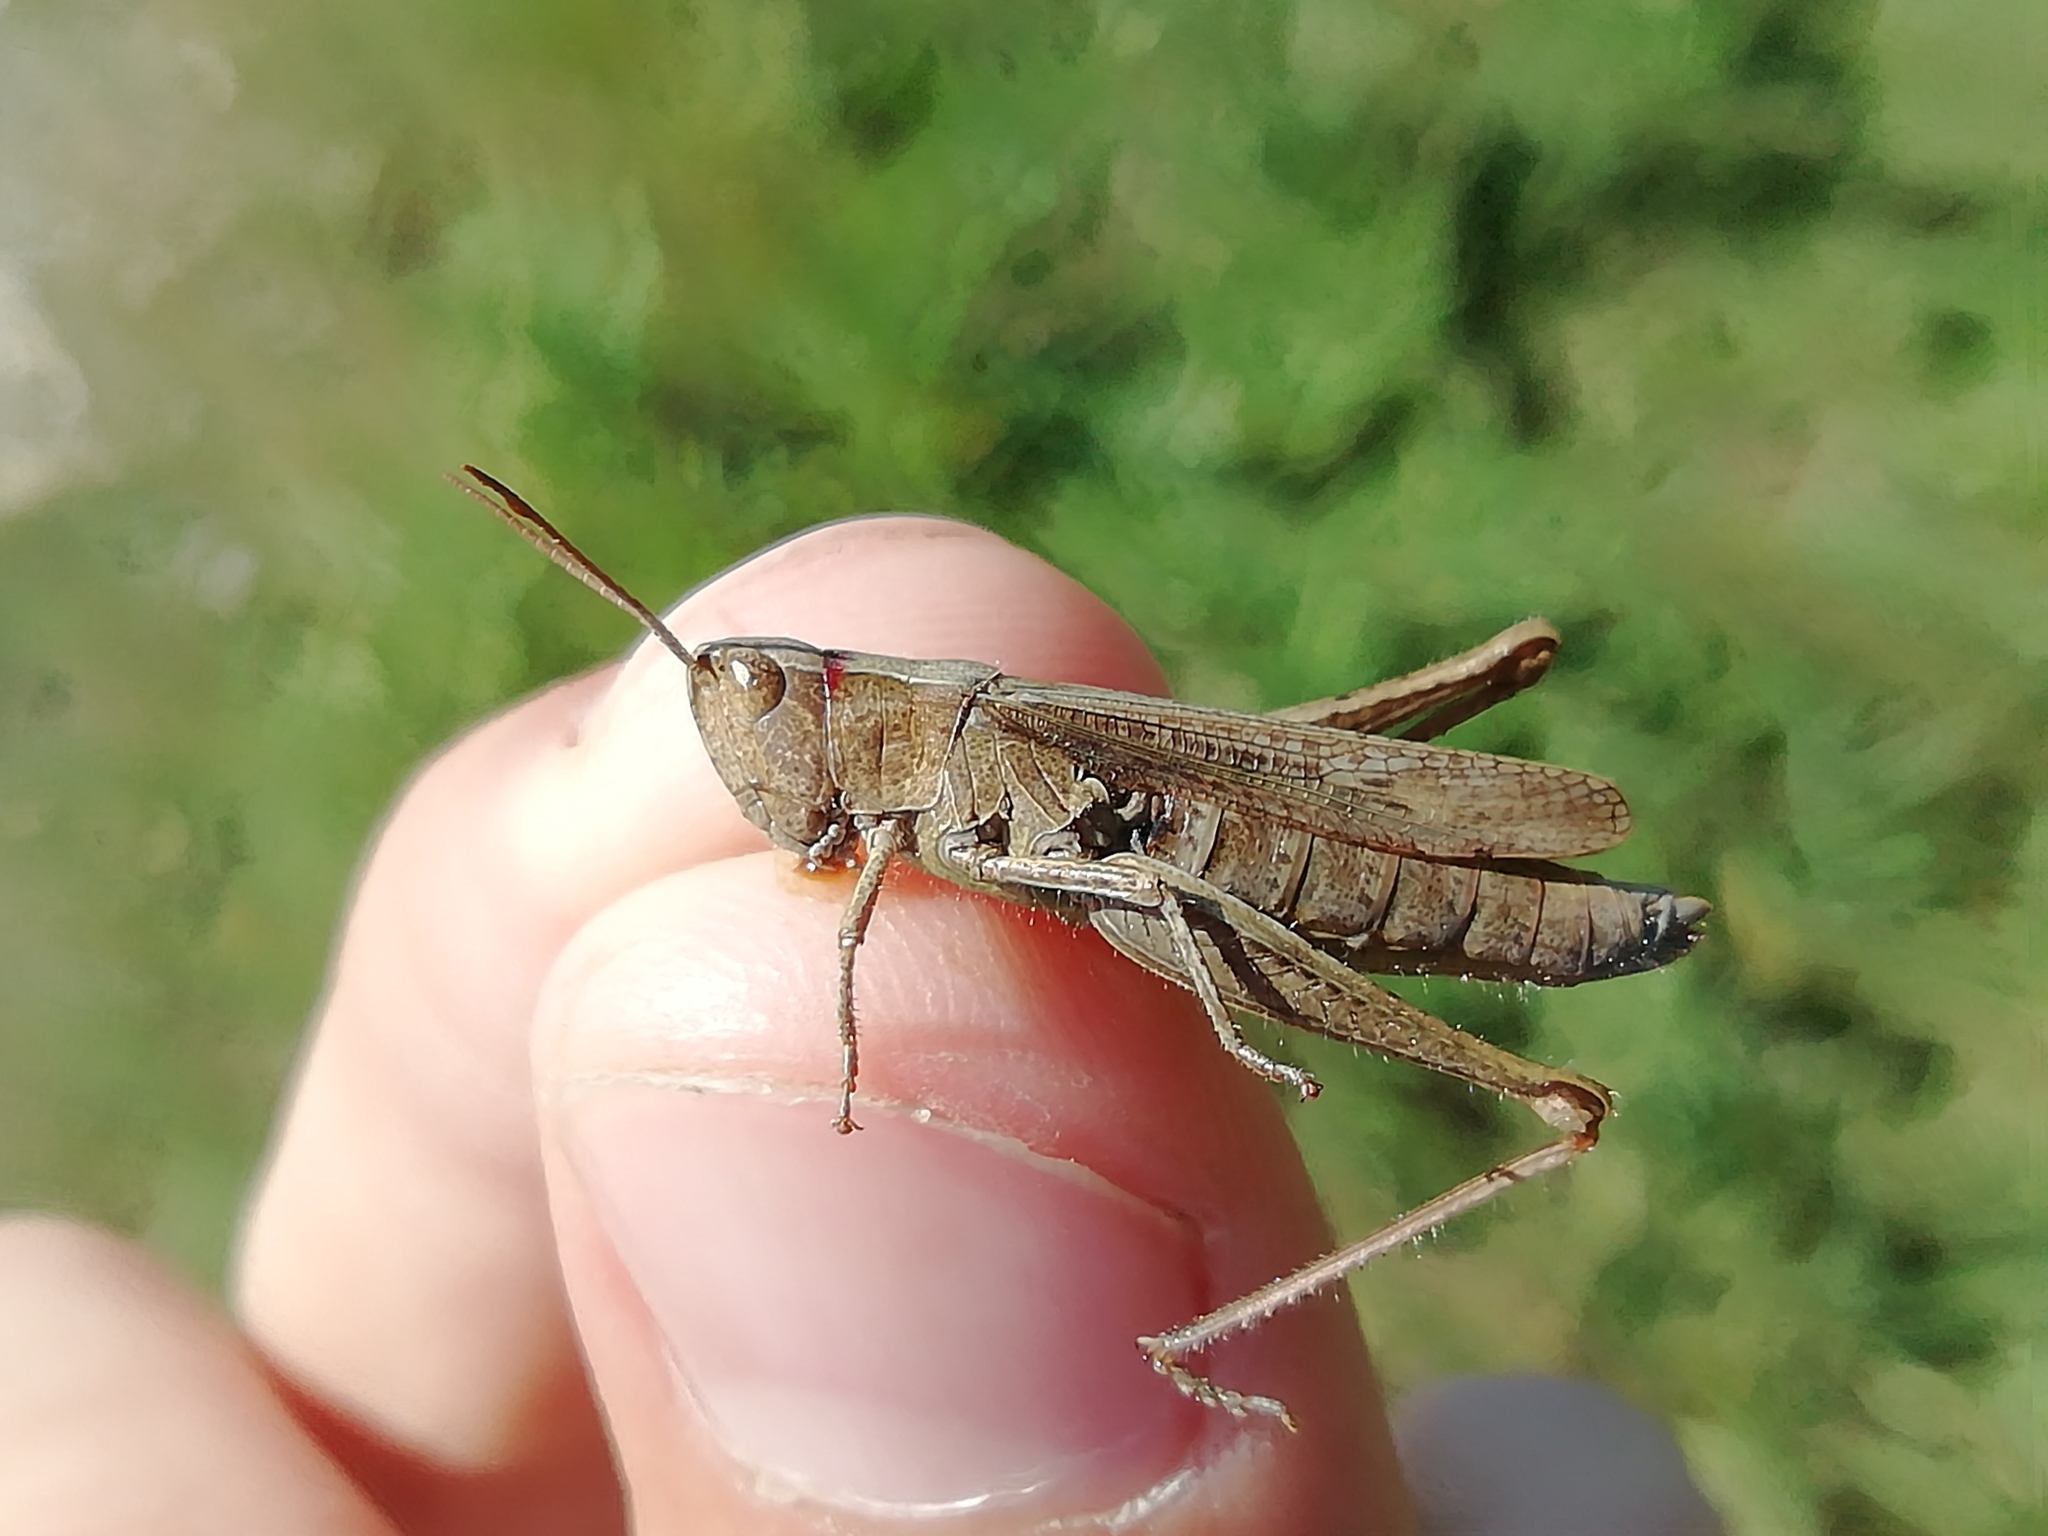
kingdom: Animalia
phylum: Arthropoda
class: Insecta
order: Orthoptera
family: Acrididae
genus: Chorthippus
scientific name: Chorthippus dorsatus
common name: Steppe grasshopper
